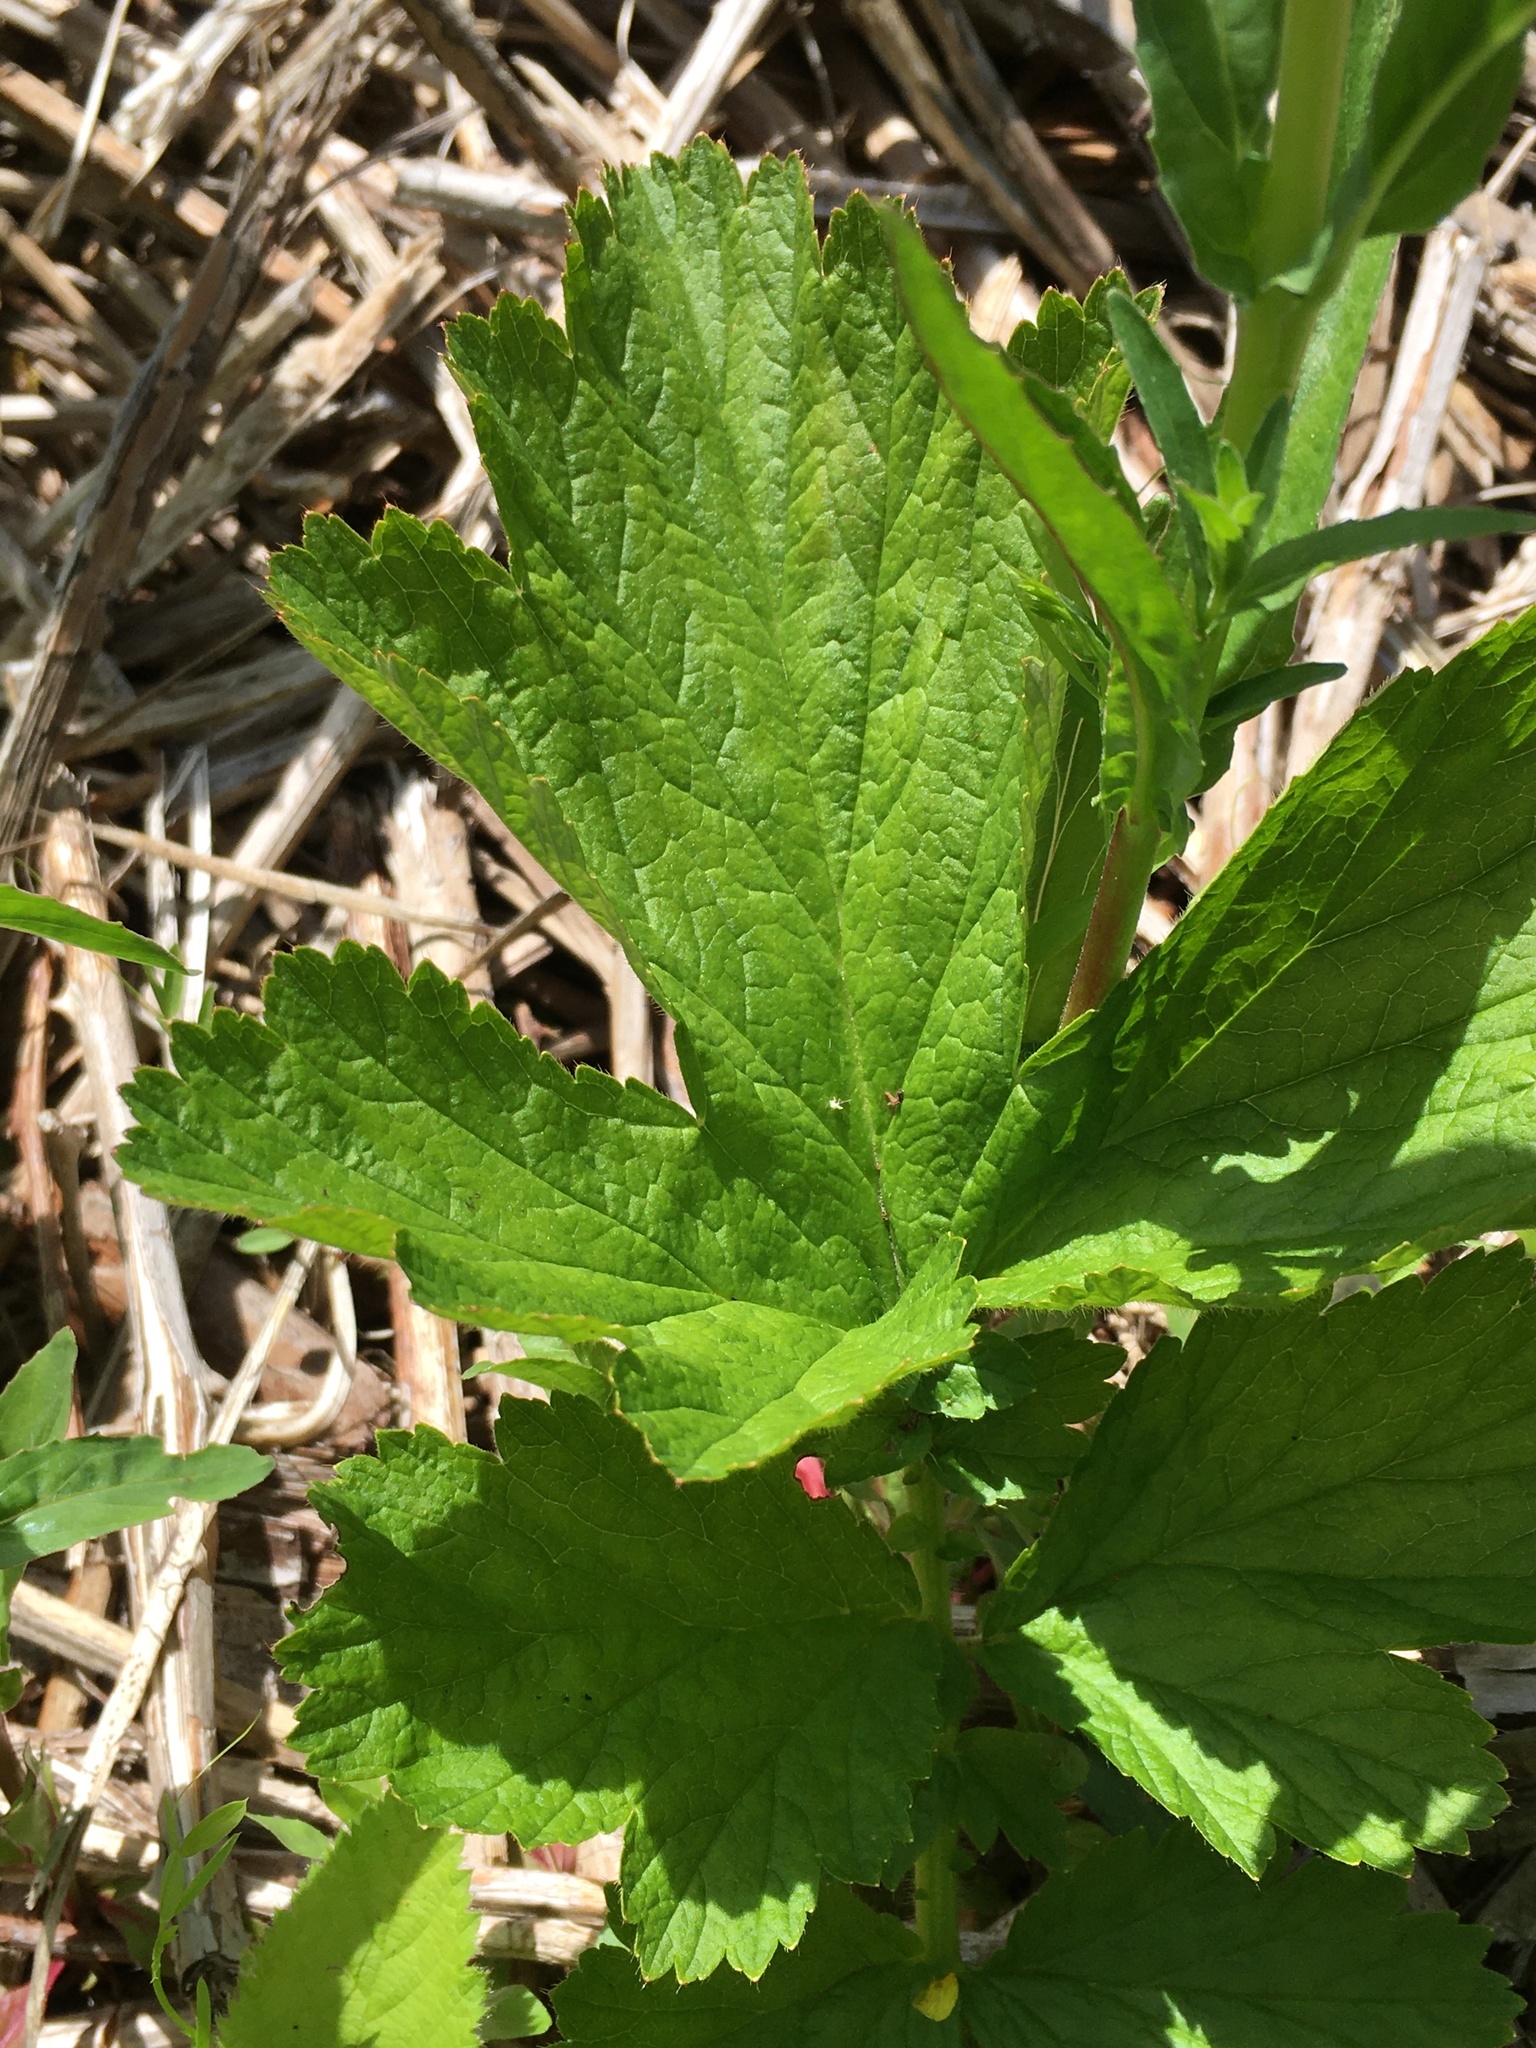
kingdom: Plantae
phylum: Tracheophyta
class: Magnoliopsida
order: Rosales
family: Rosaceae
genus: Geum
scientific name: Geum macrophyllum
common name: Large-leaved avens
